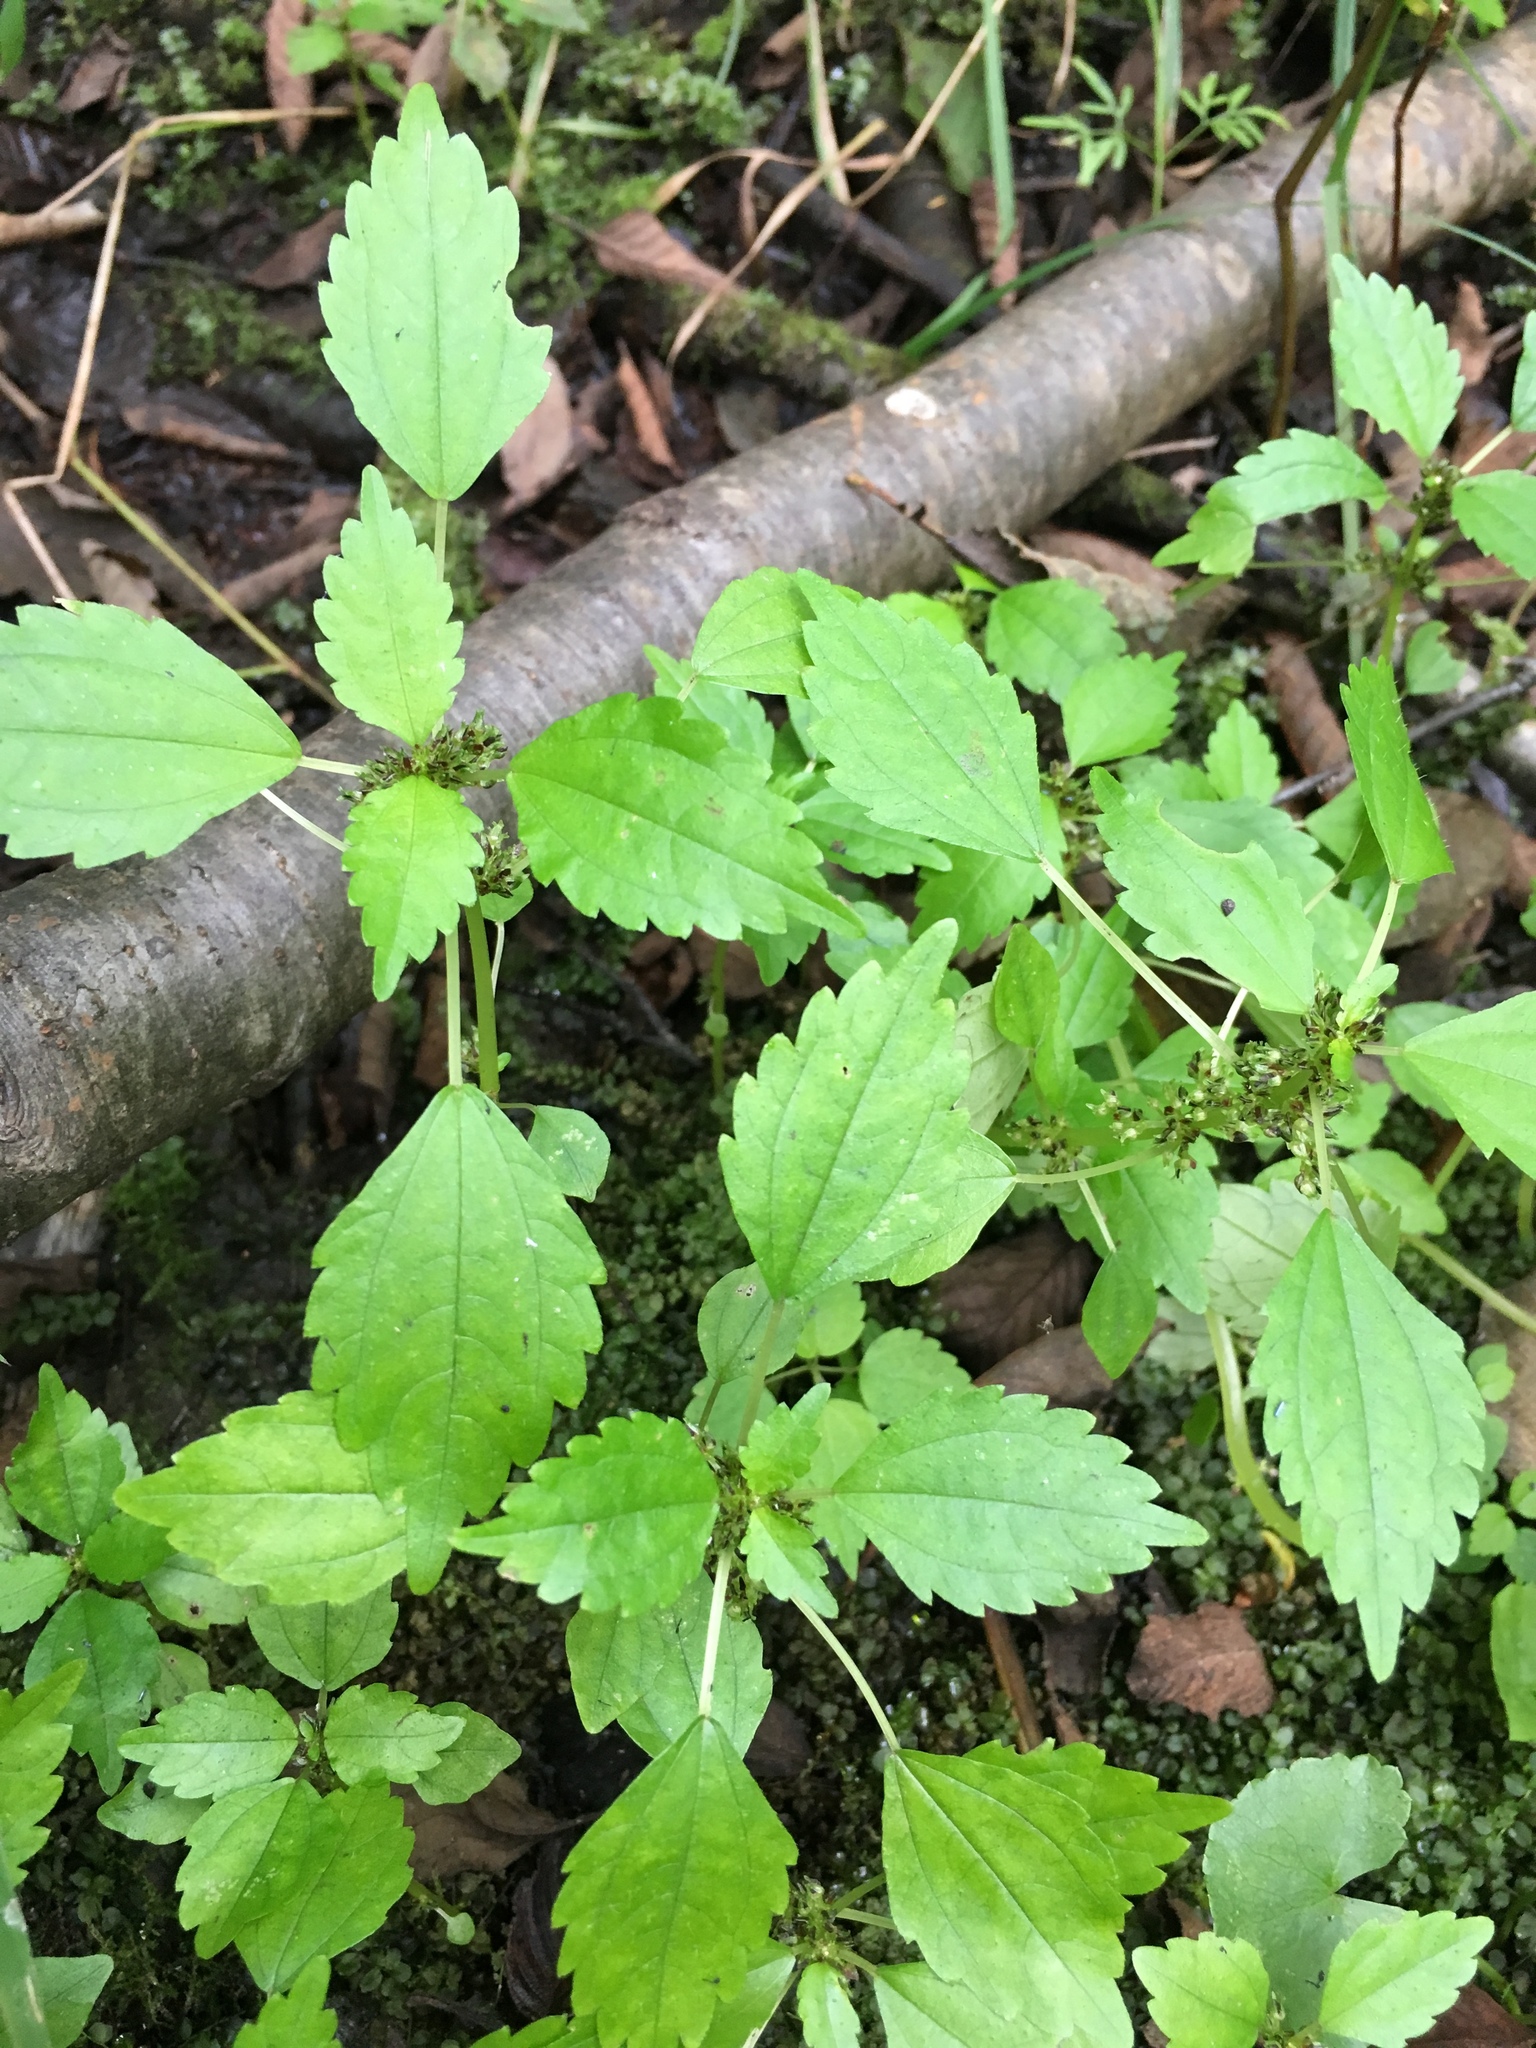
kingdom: Plantae
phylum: Tracheophyta
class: Magnoliopsida
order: Rosales
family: Urticaceae
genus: Pilea
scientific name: Pilea fontana
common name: Clearweed
